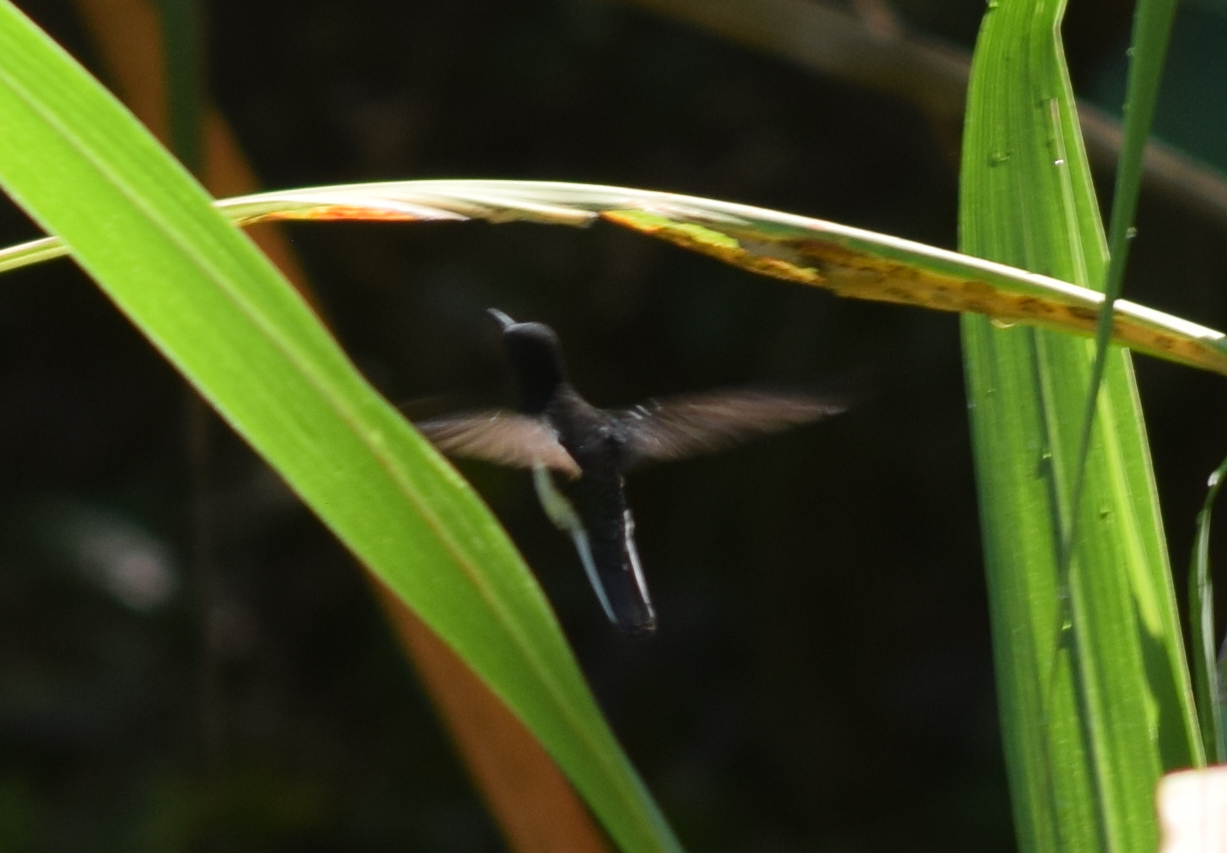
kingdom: Animalia
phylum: Chordata
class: Aves
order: Apodiformes
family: Trochilidae
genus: Florisuga
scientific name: Florisuga fusca
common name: Black jacobin
